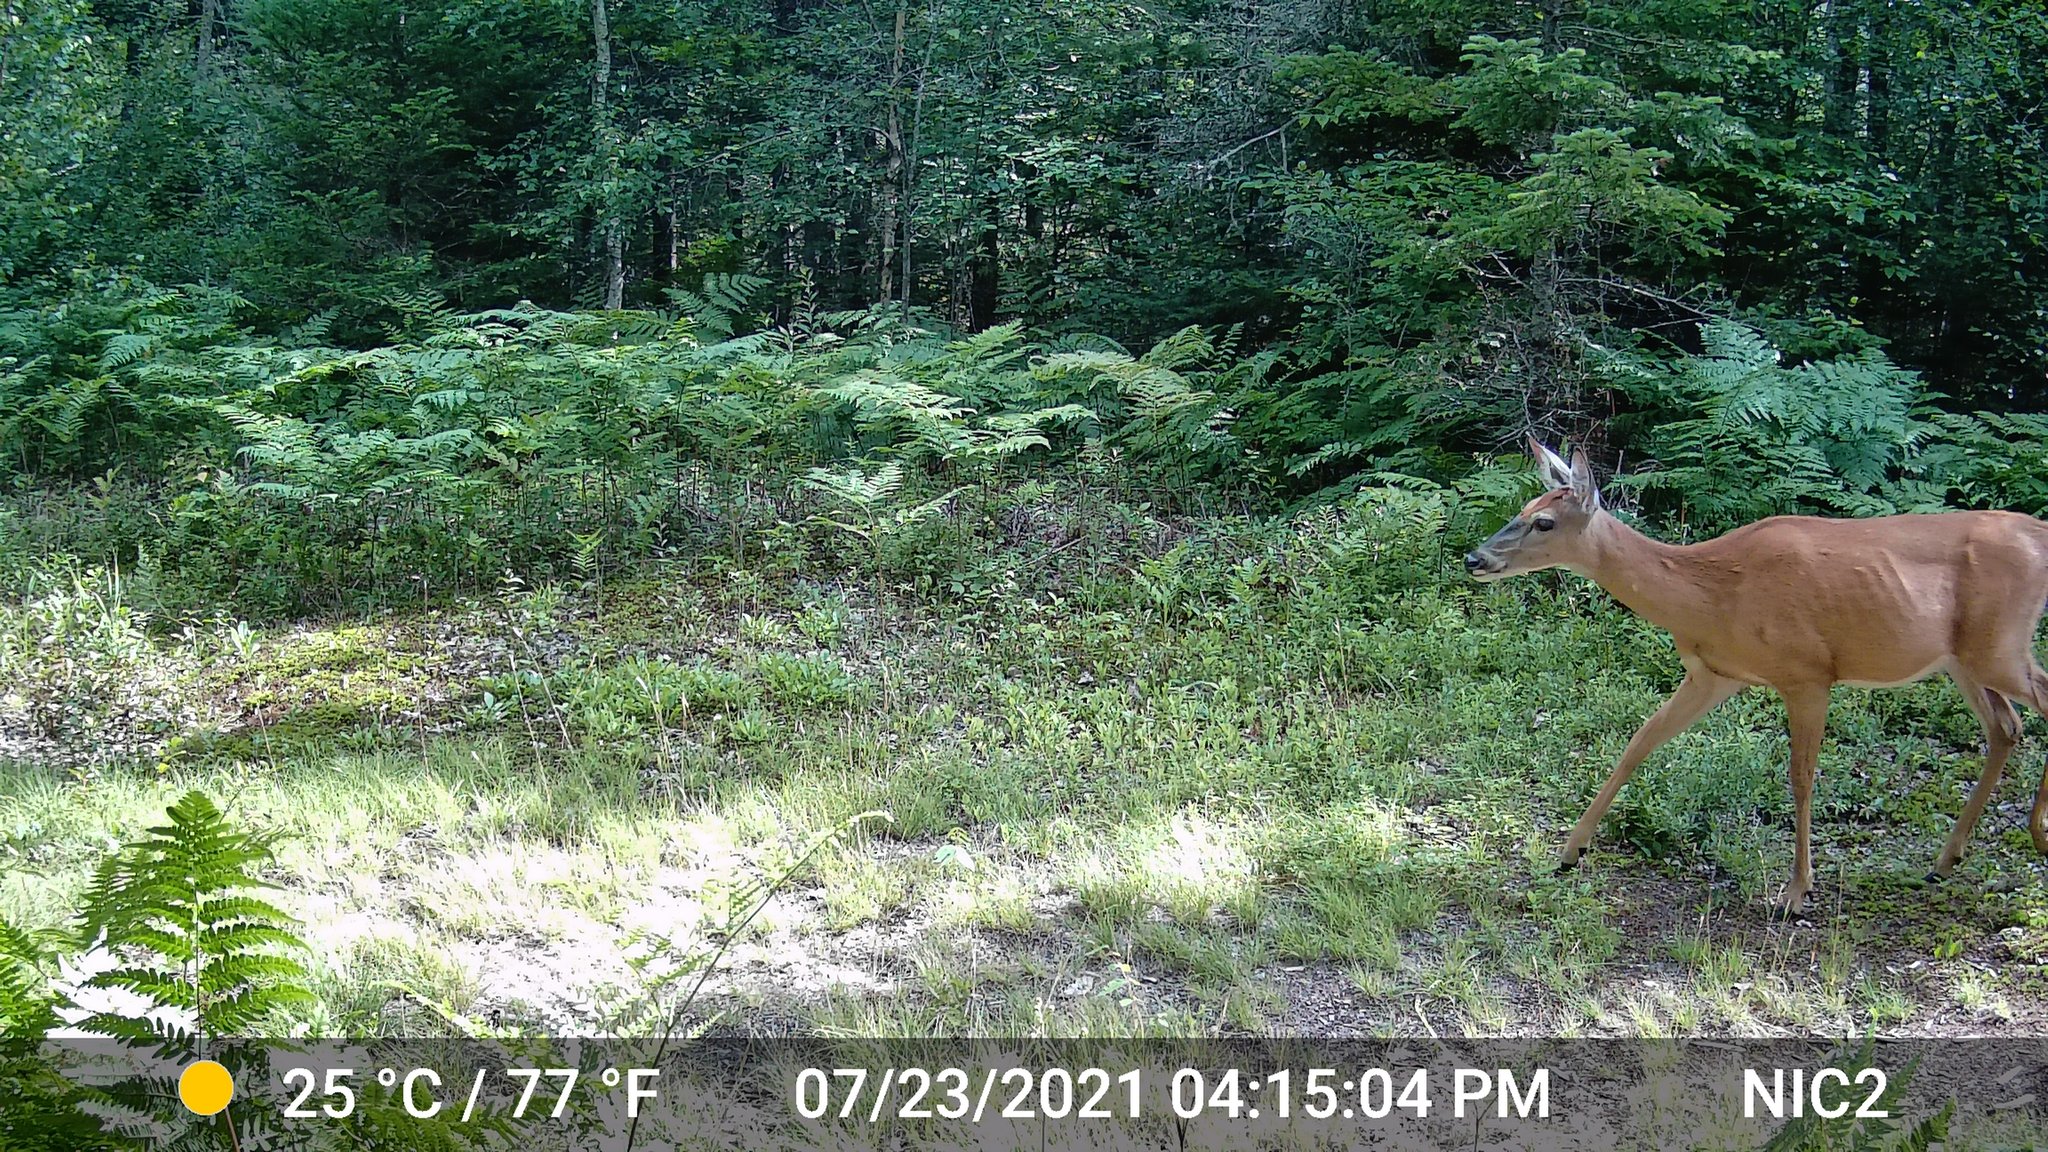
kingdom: Animalia
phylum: Chordata
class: Mammalia
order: Artiodactyla
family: Cervidae
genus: Odocoileus
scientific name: Odocoileus virginianus
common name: White-tailed deer
